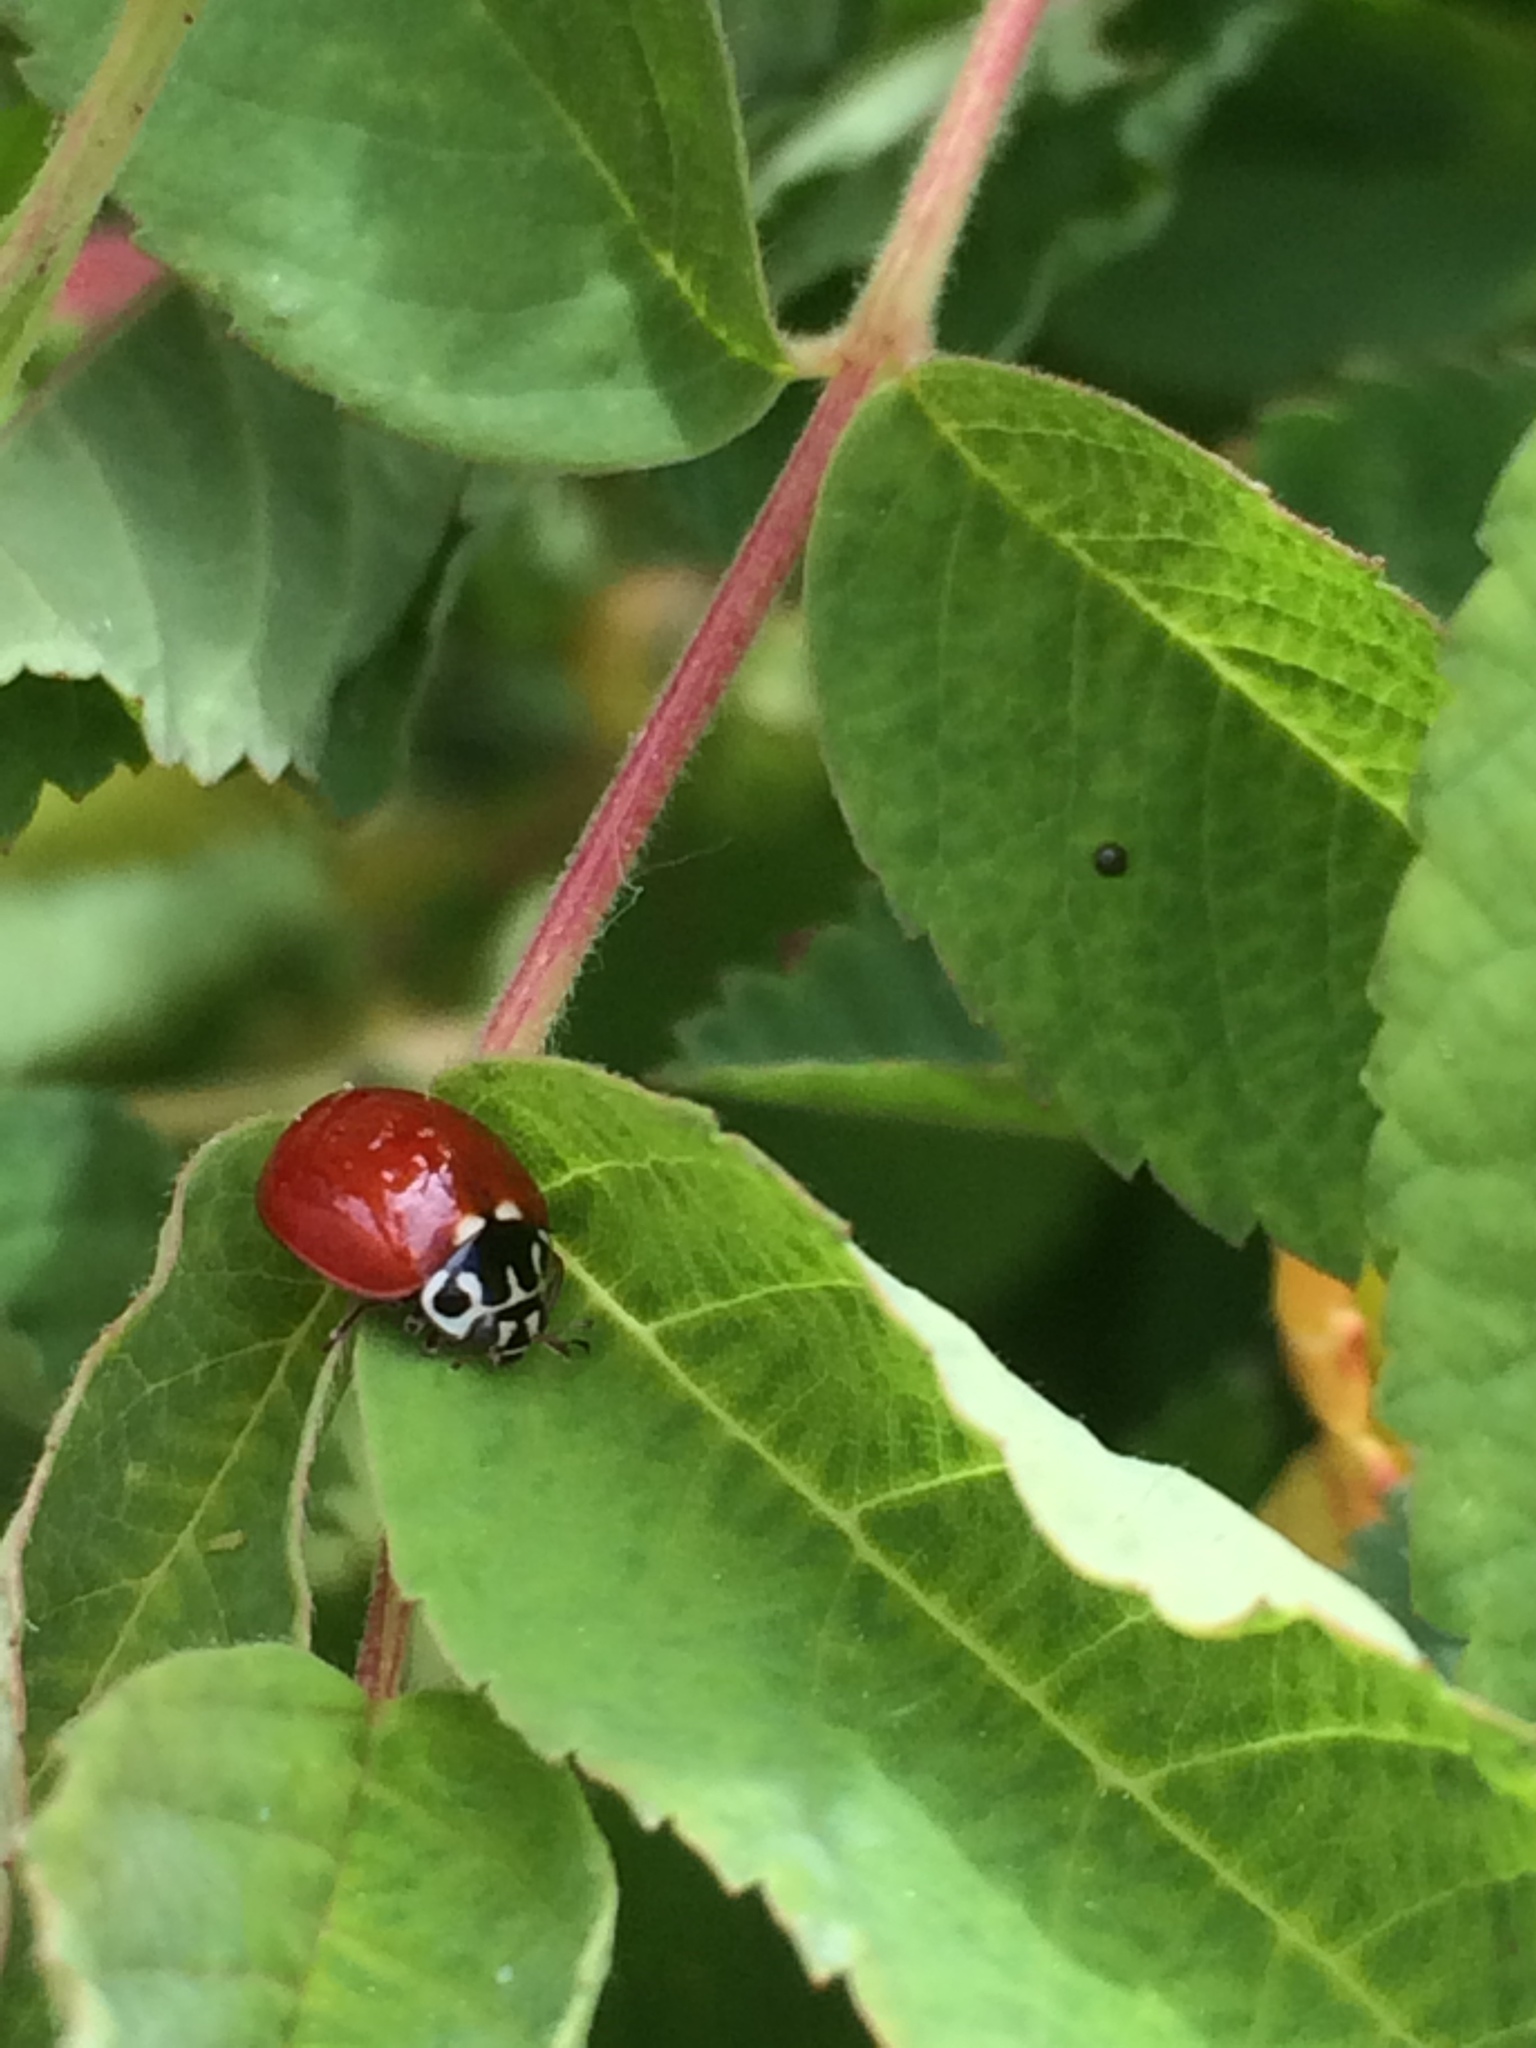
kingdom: Animalia
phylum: Arthropoda
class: Insecta
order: Coleoptera
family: Coccinellidae
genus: Cycloneda
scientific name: Cycloneda polita
